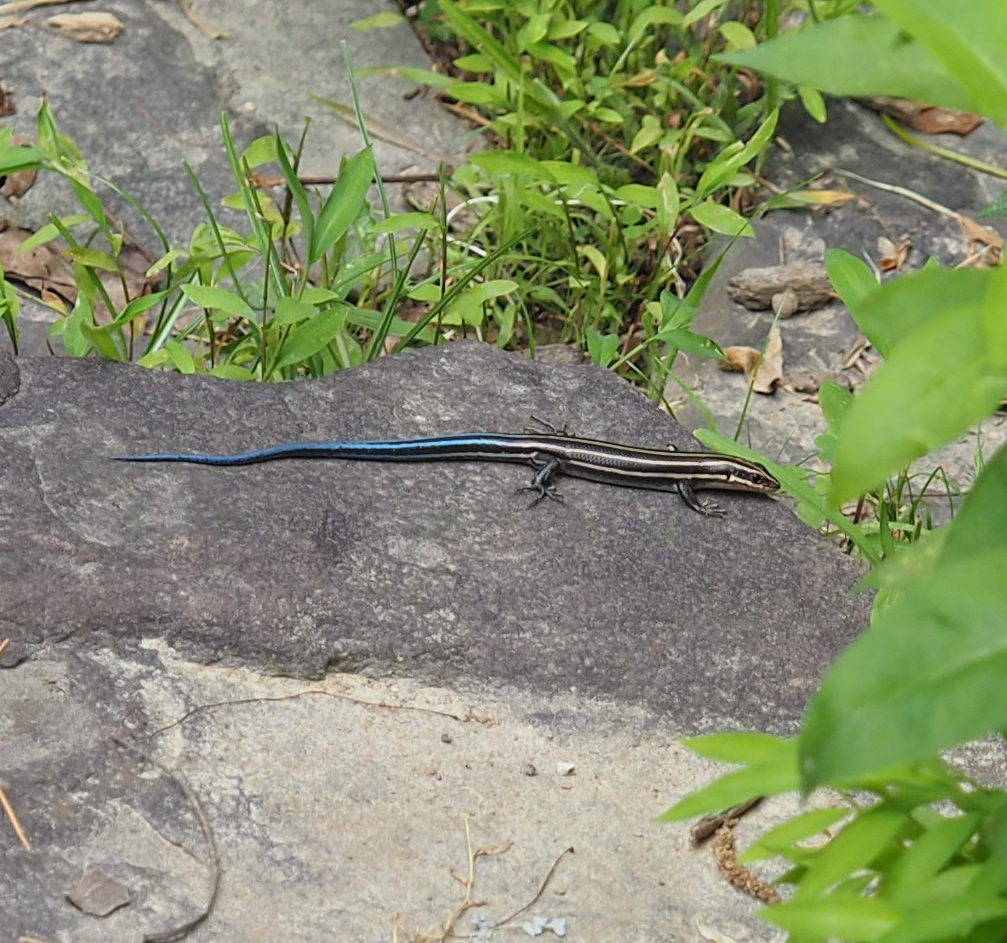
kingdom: Animalia
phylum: Chordata
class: Squamata
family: Scincidae
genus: Plestiodon
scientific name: Plestiodon fasciatus
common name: Five-lined skink
